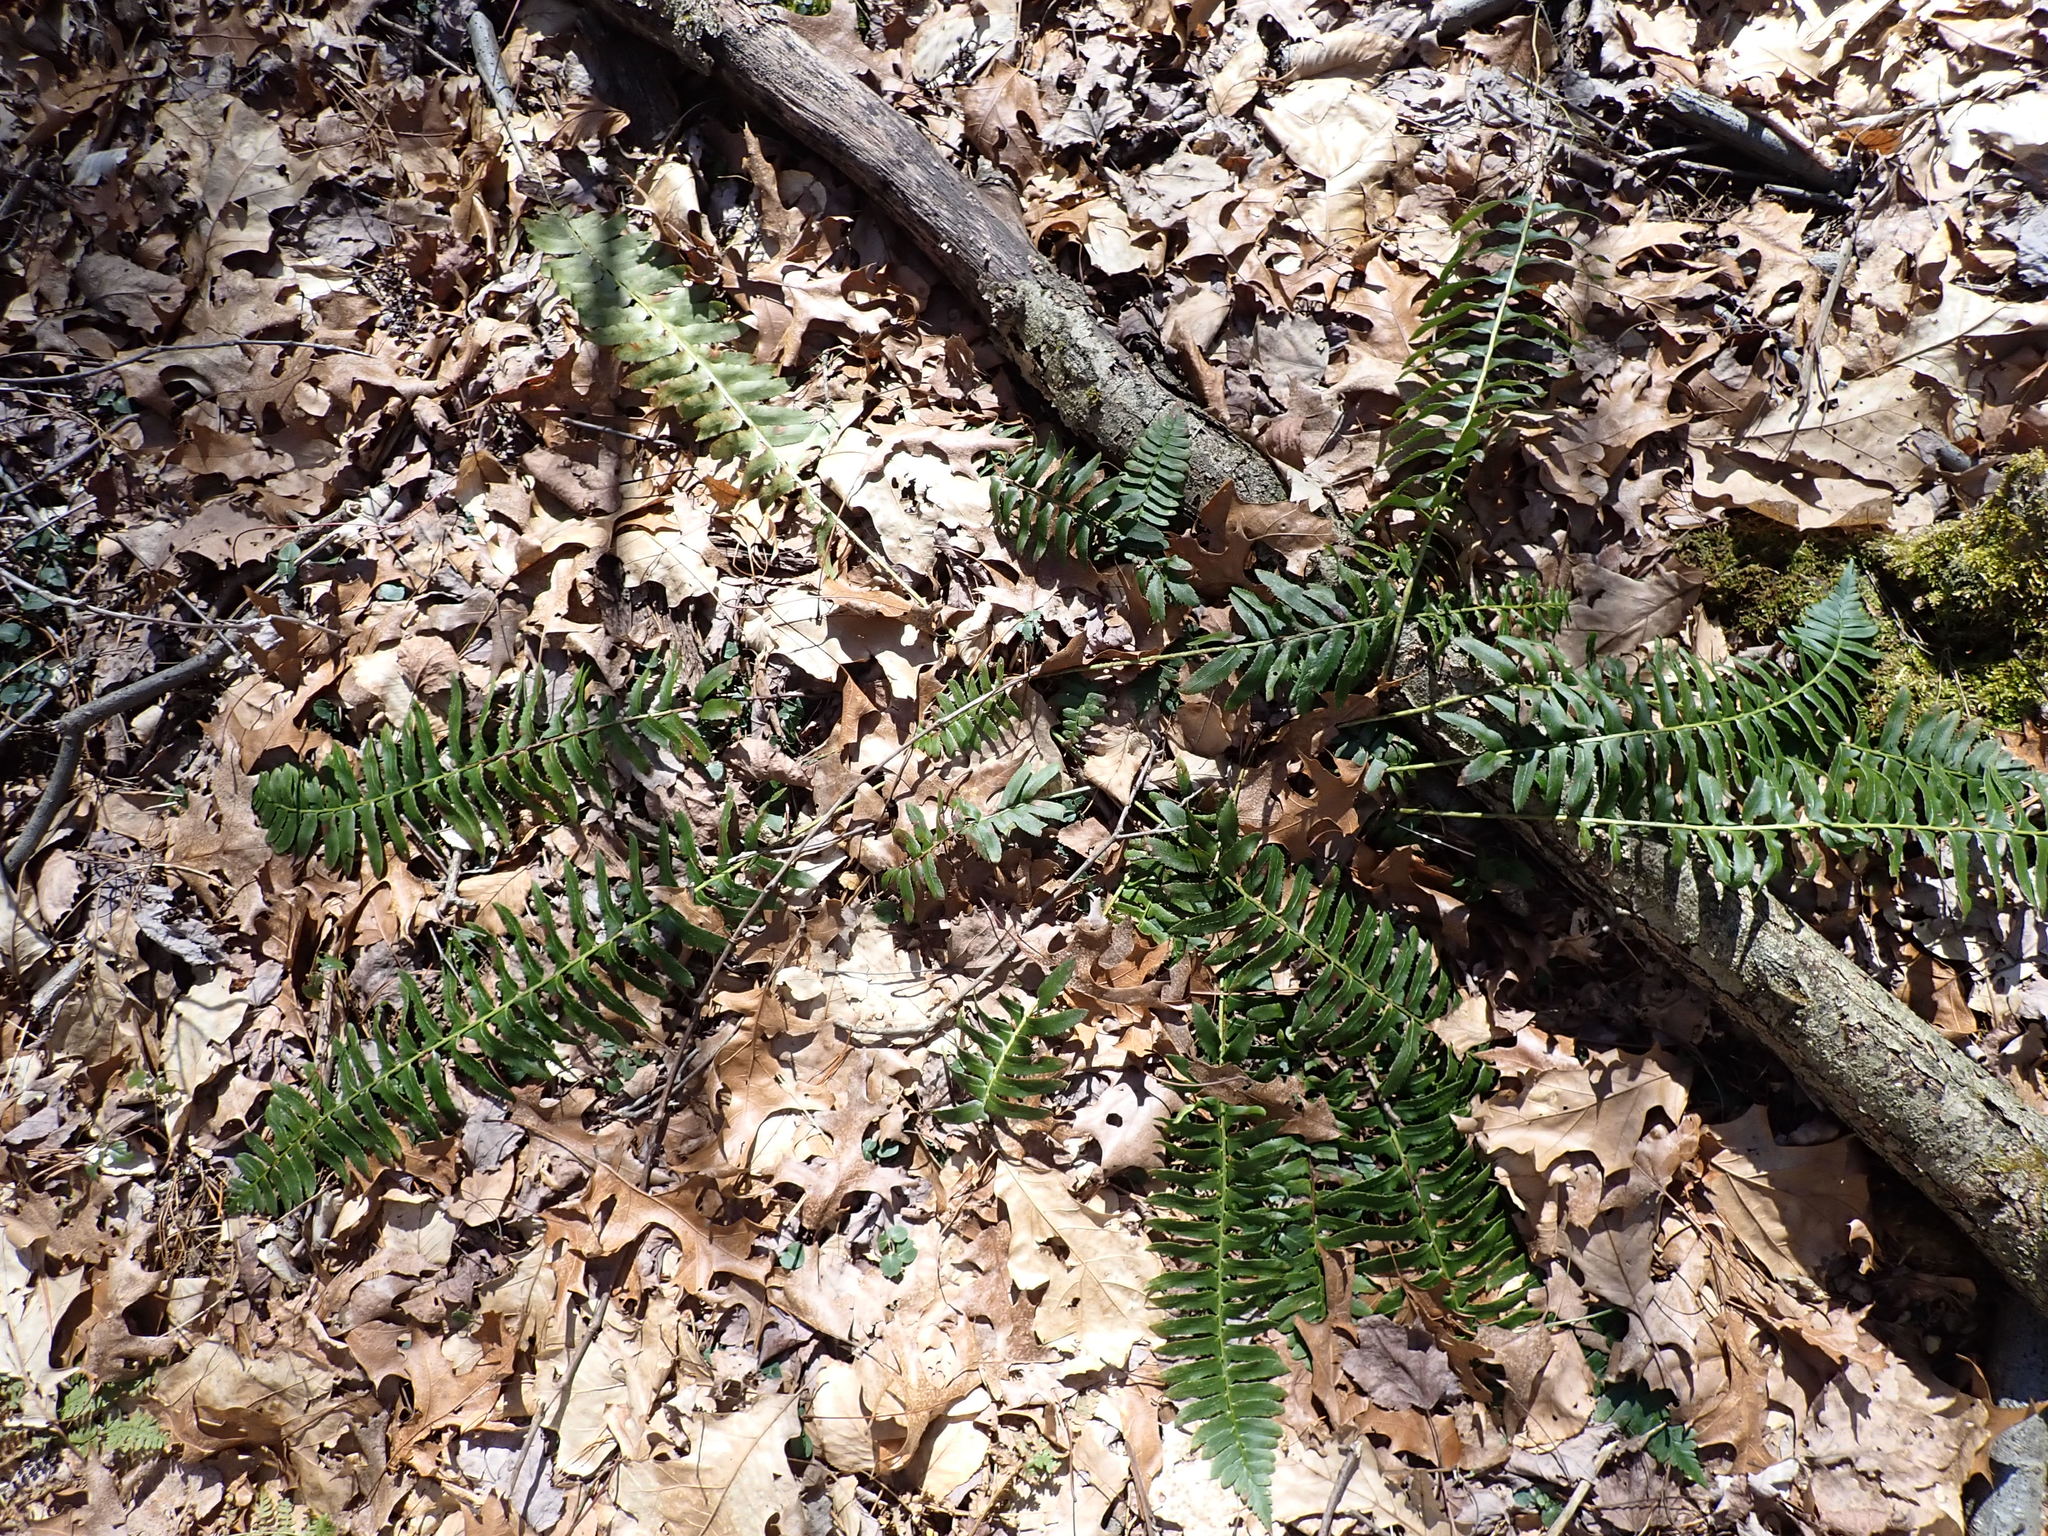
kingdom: Plantae
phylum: Tracheophyta
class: Polypodiopsida
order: Polypodiales
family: Dryopteridaceae
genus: Polystichum
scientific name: Polystichum acrostichoides
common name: Christmas fern
